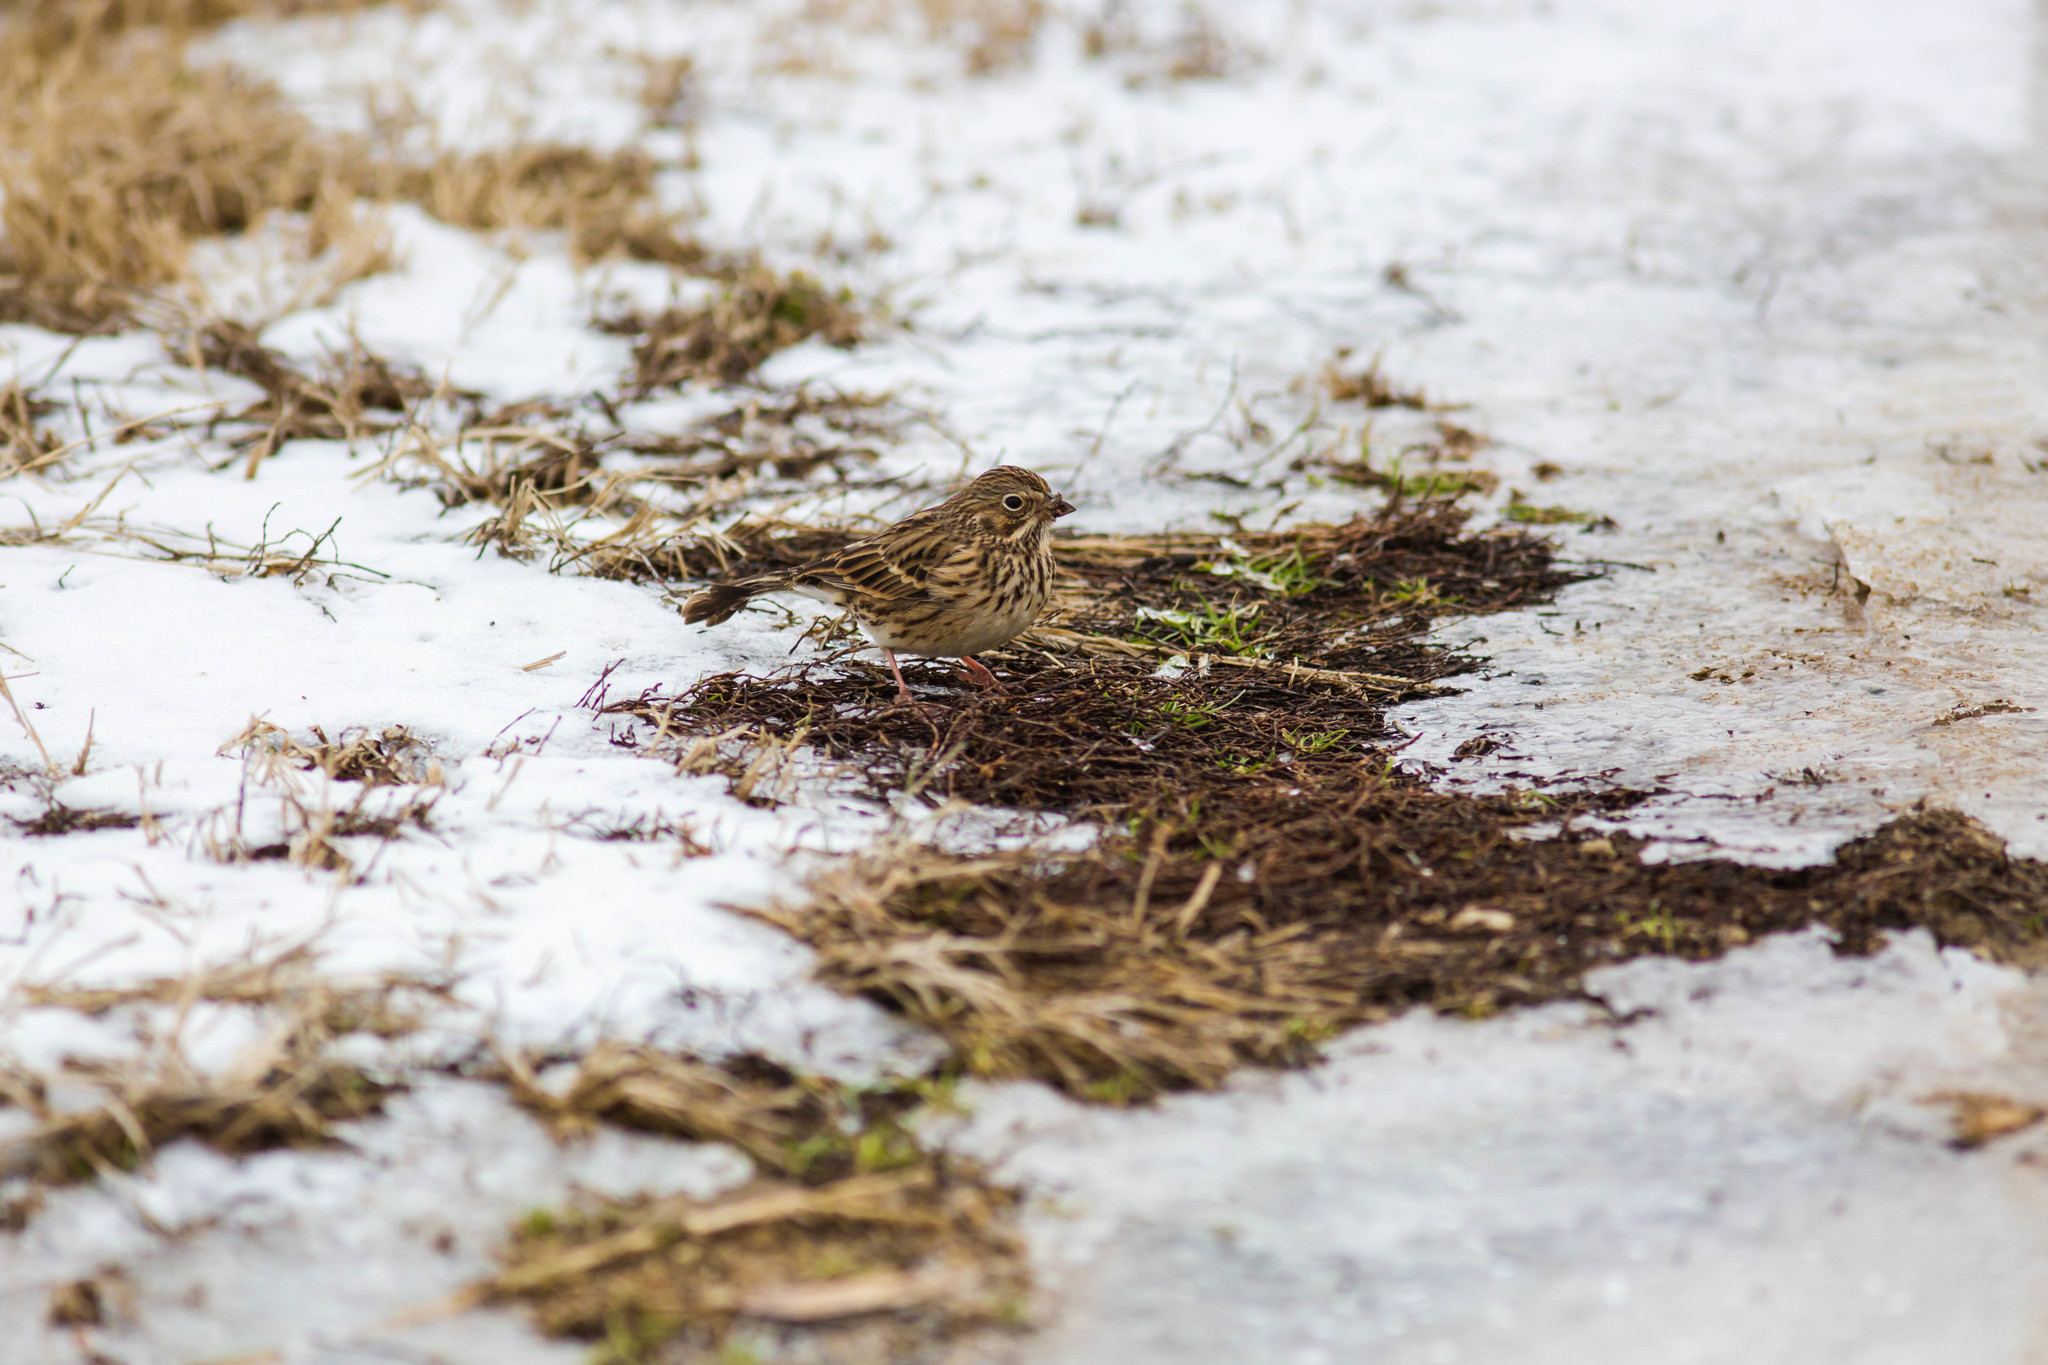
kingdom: Animalia
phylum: Chordata
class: Aves
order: Passeriformes
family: Passerellidae
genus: Pooecetes
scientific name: Pooecetes gramineus
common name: Vesper sparrow
